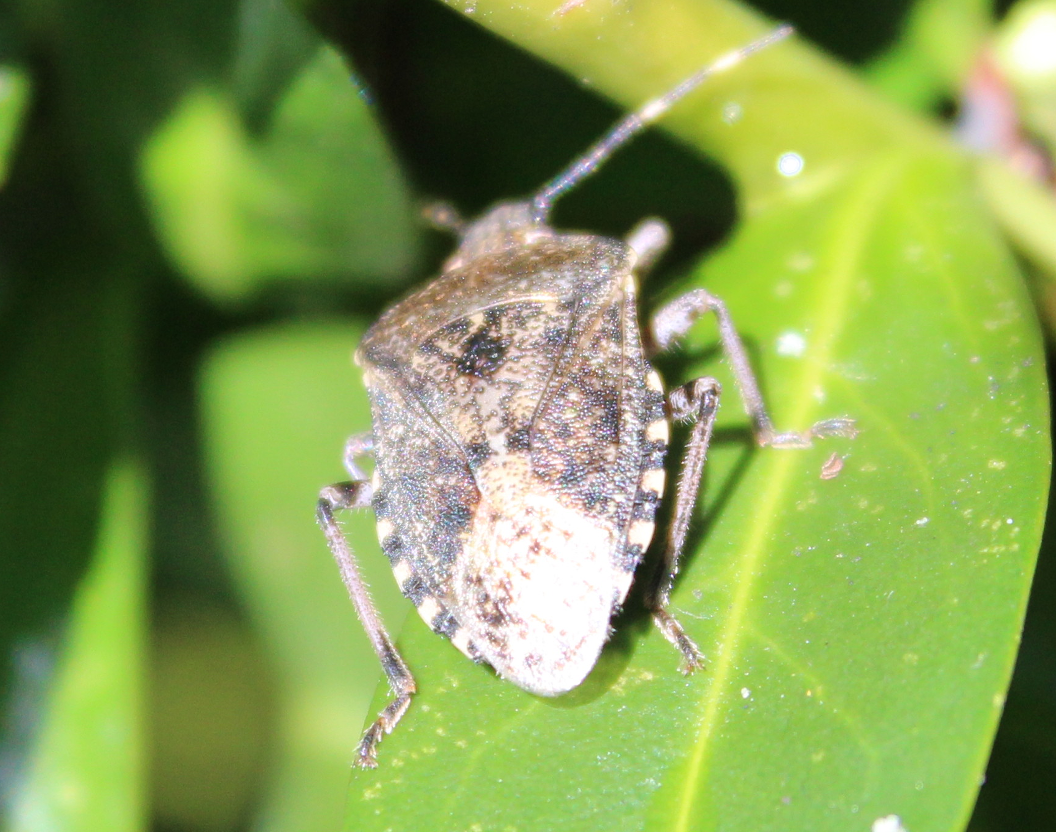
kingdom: Animalia
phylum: Arthropoda
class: Insecta
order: Hemiptera
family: Pentatomidae
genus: Rhaphigaster
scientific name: Rhaphigaster nebulosa
